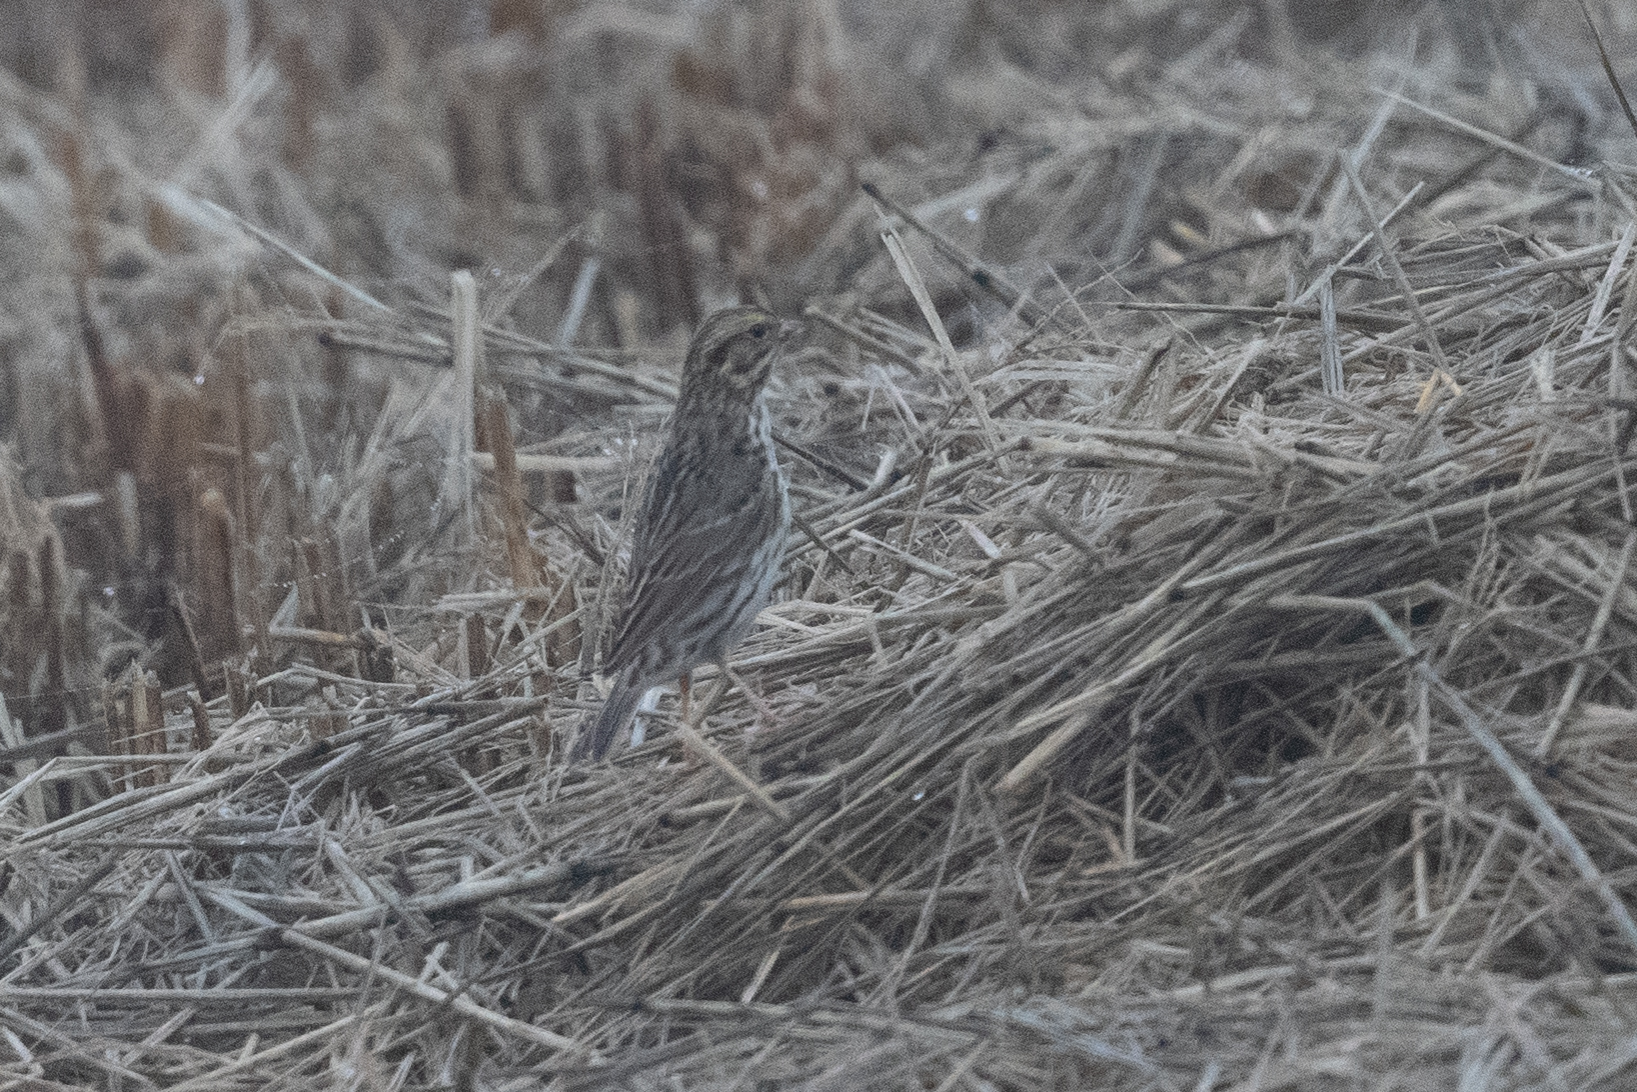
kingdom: Animalia
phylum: Chordata
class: Aves
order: Passeriformes
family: Passerellidae
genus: Passerculus
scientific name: Passerculus sandwichensis
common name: Savannah sparrow
